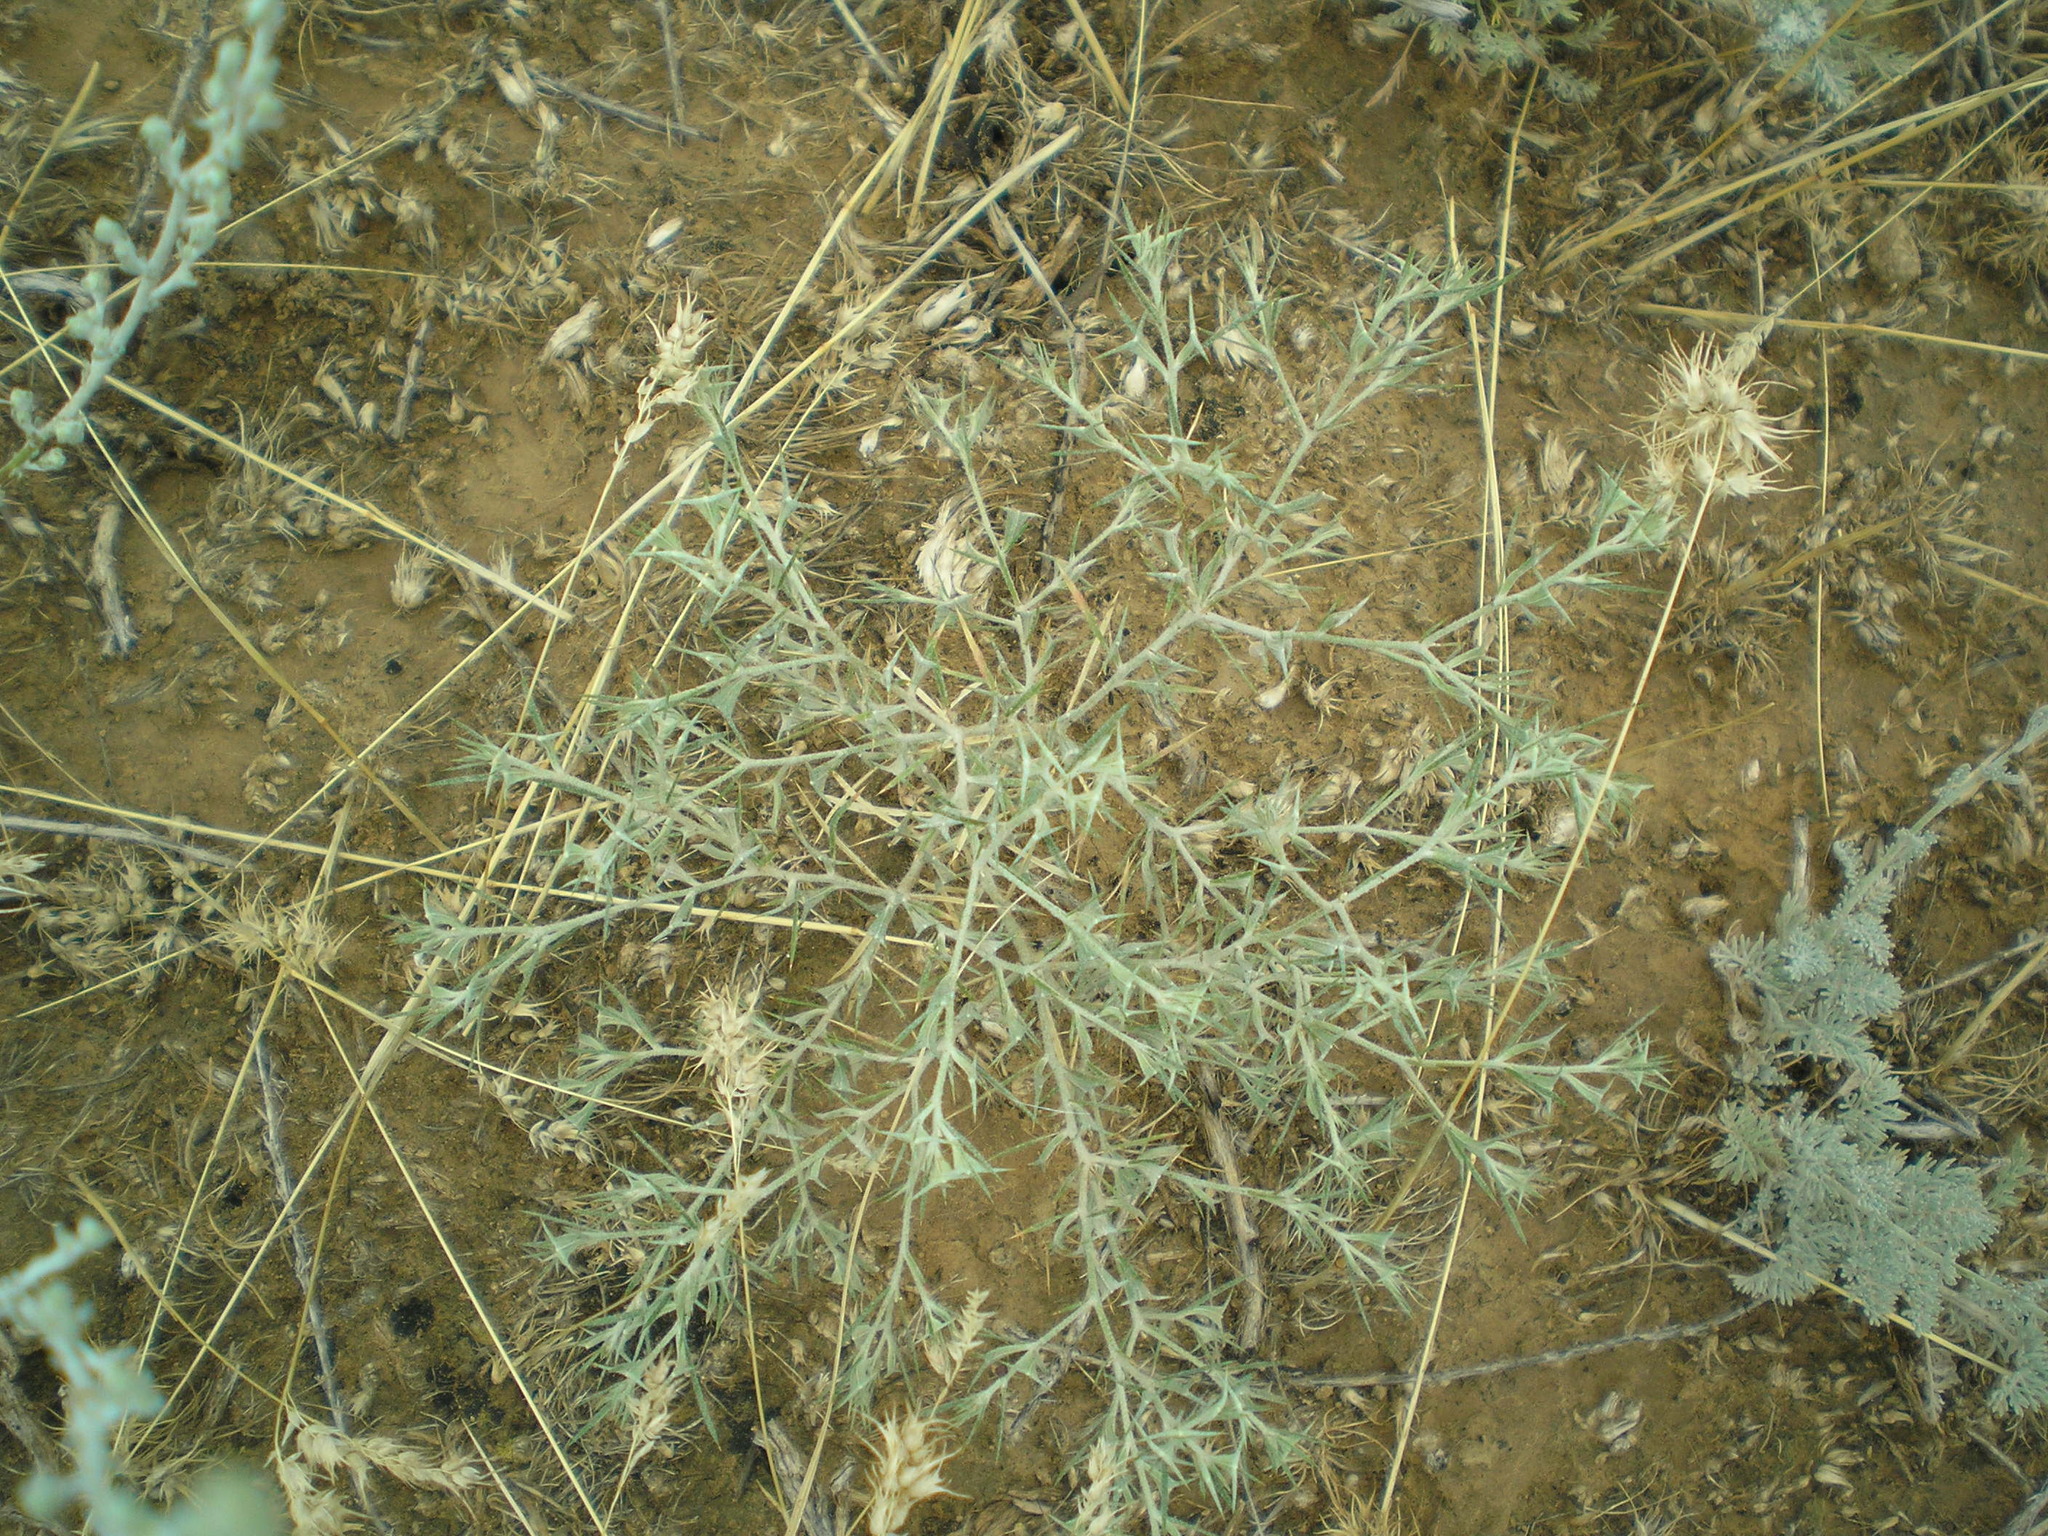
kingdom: Plantae
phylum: Tracheophyta
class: Magnoliopsida
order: Caryophyllales
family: Amaranthaceae
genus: Ceratocarpus
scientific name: Ceratocarpus arenarius
